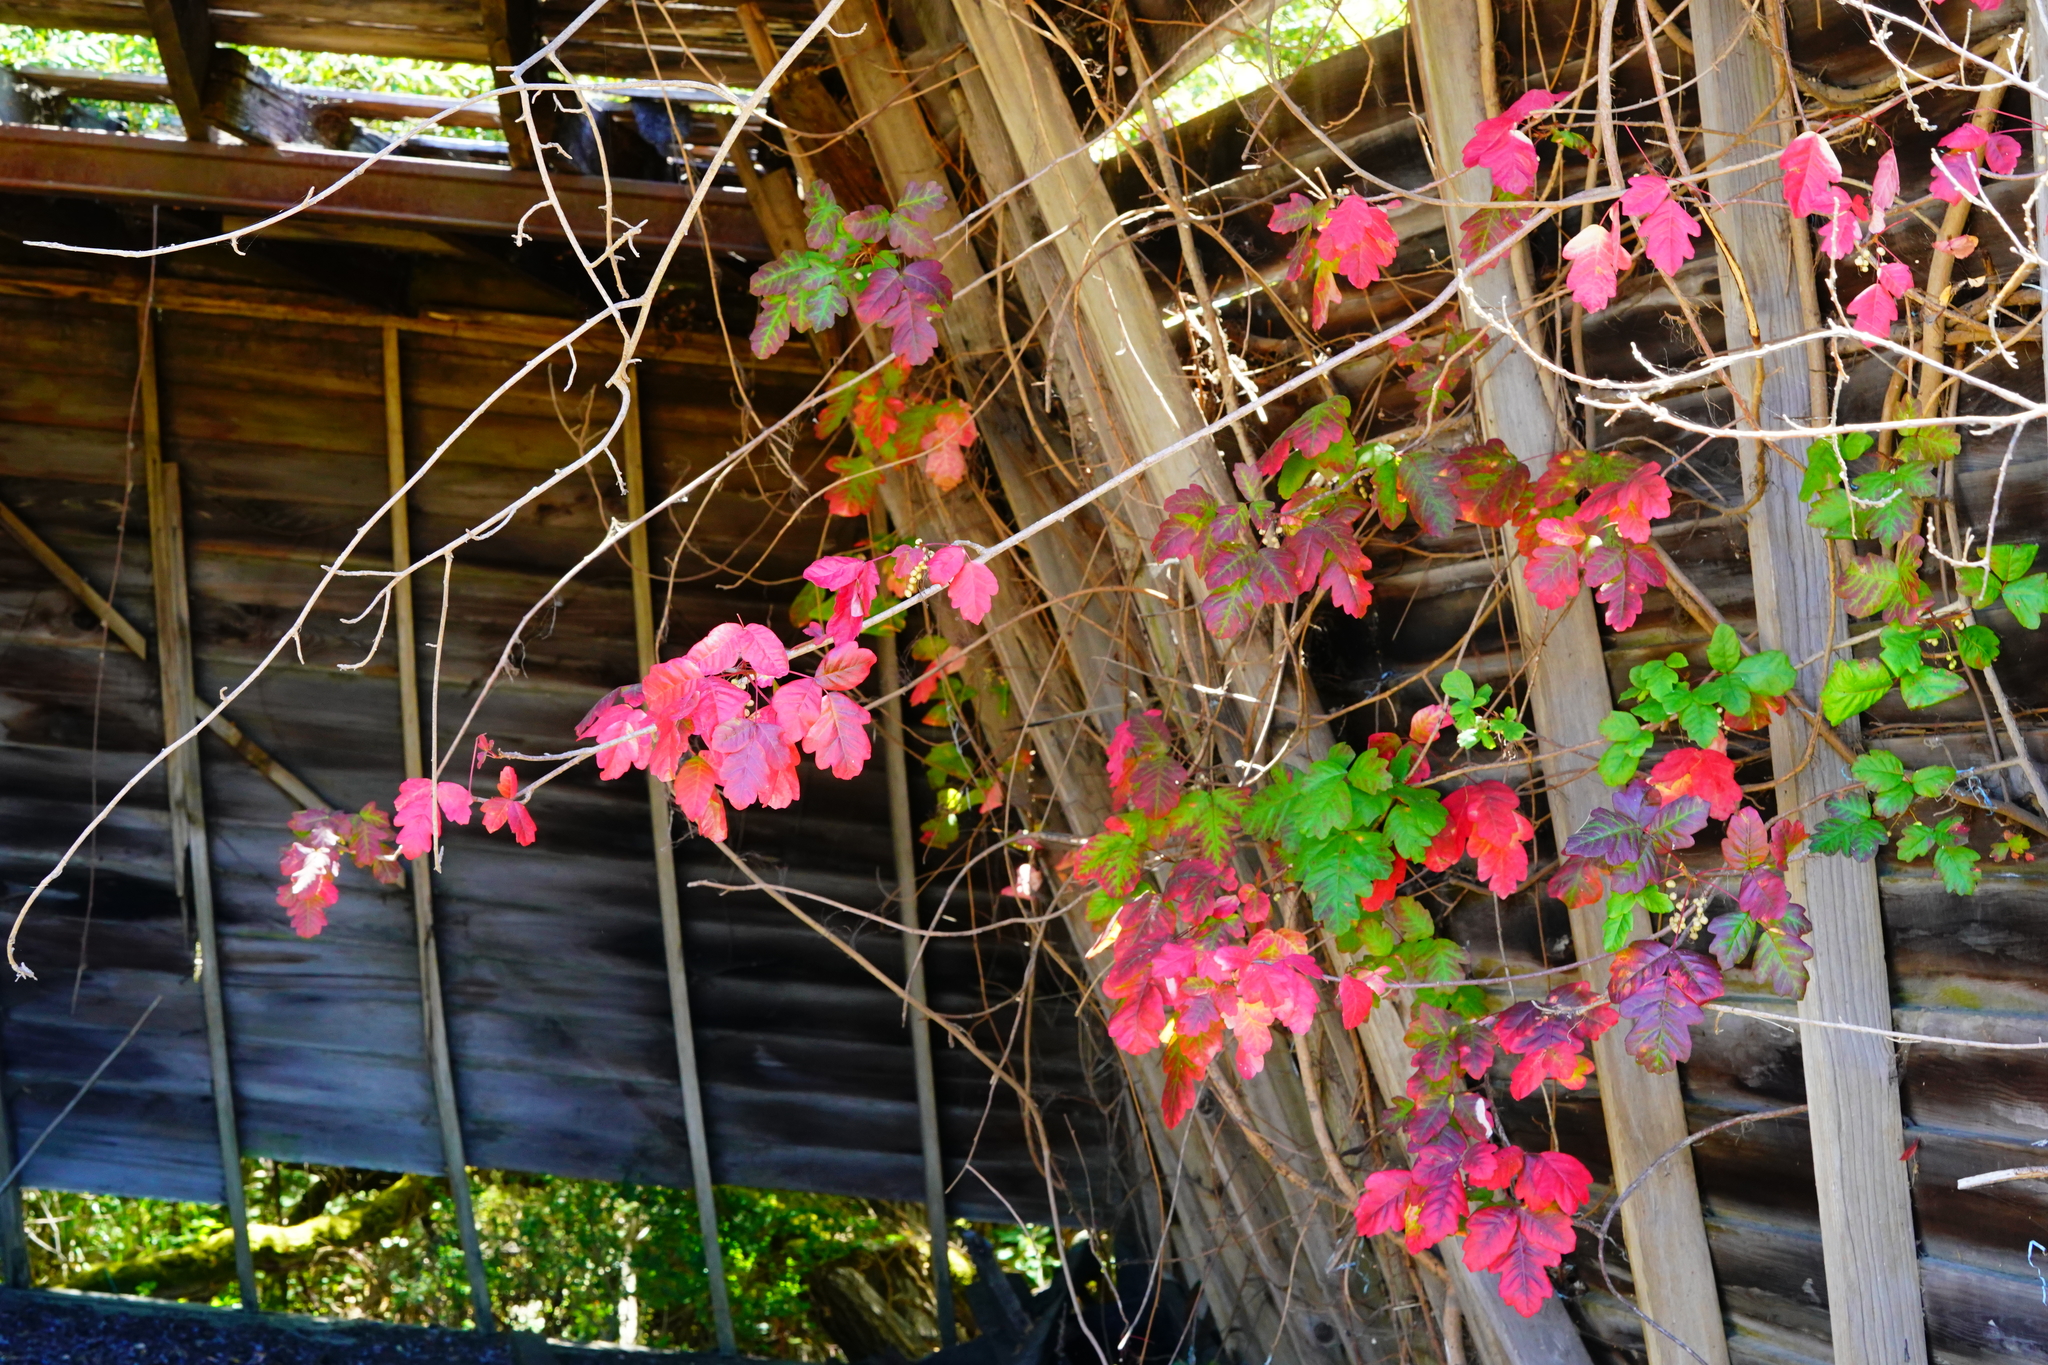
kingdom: Plantae
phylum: Tracheophyta
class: Magnoliopsida
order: Sapindales
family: Anacardiaceae
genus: Toxicodendron
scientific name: Toxicodendron diversilobum
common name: Pacific poison-oak
